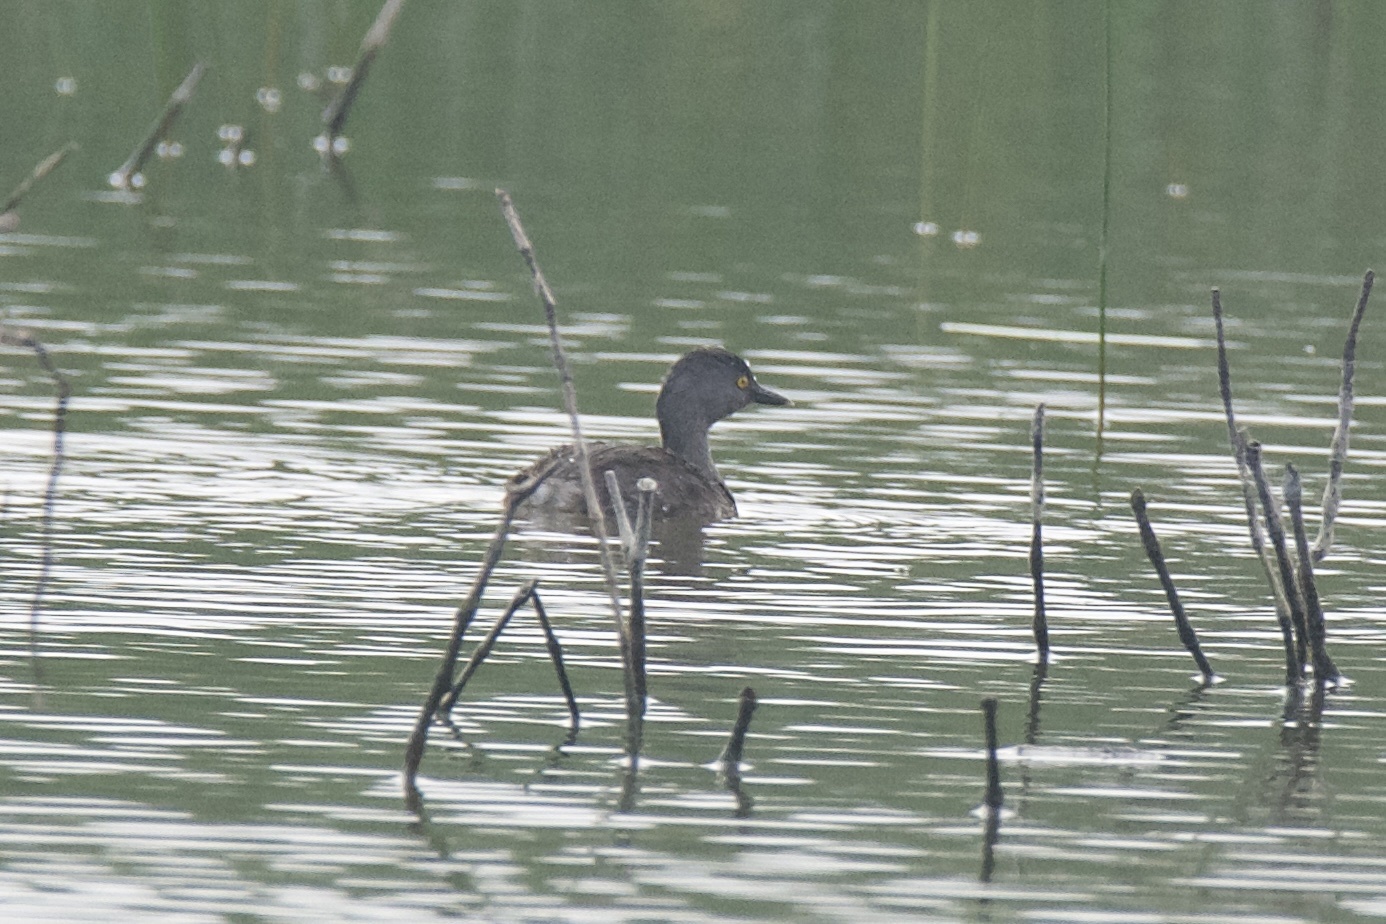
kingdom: Animalia
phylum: Chordata
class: Aves
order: Podicipediformes
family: Podicipedidae
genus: Tachybaptus
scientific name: Tachybaptus dominicus
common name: Least grebe
